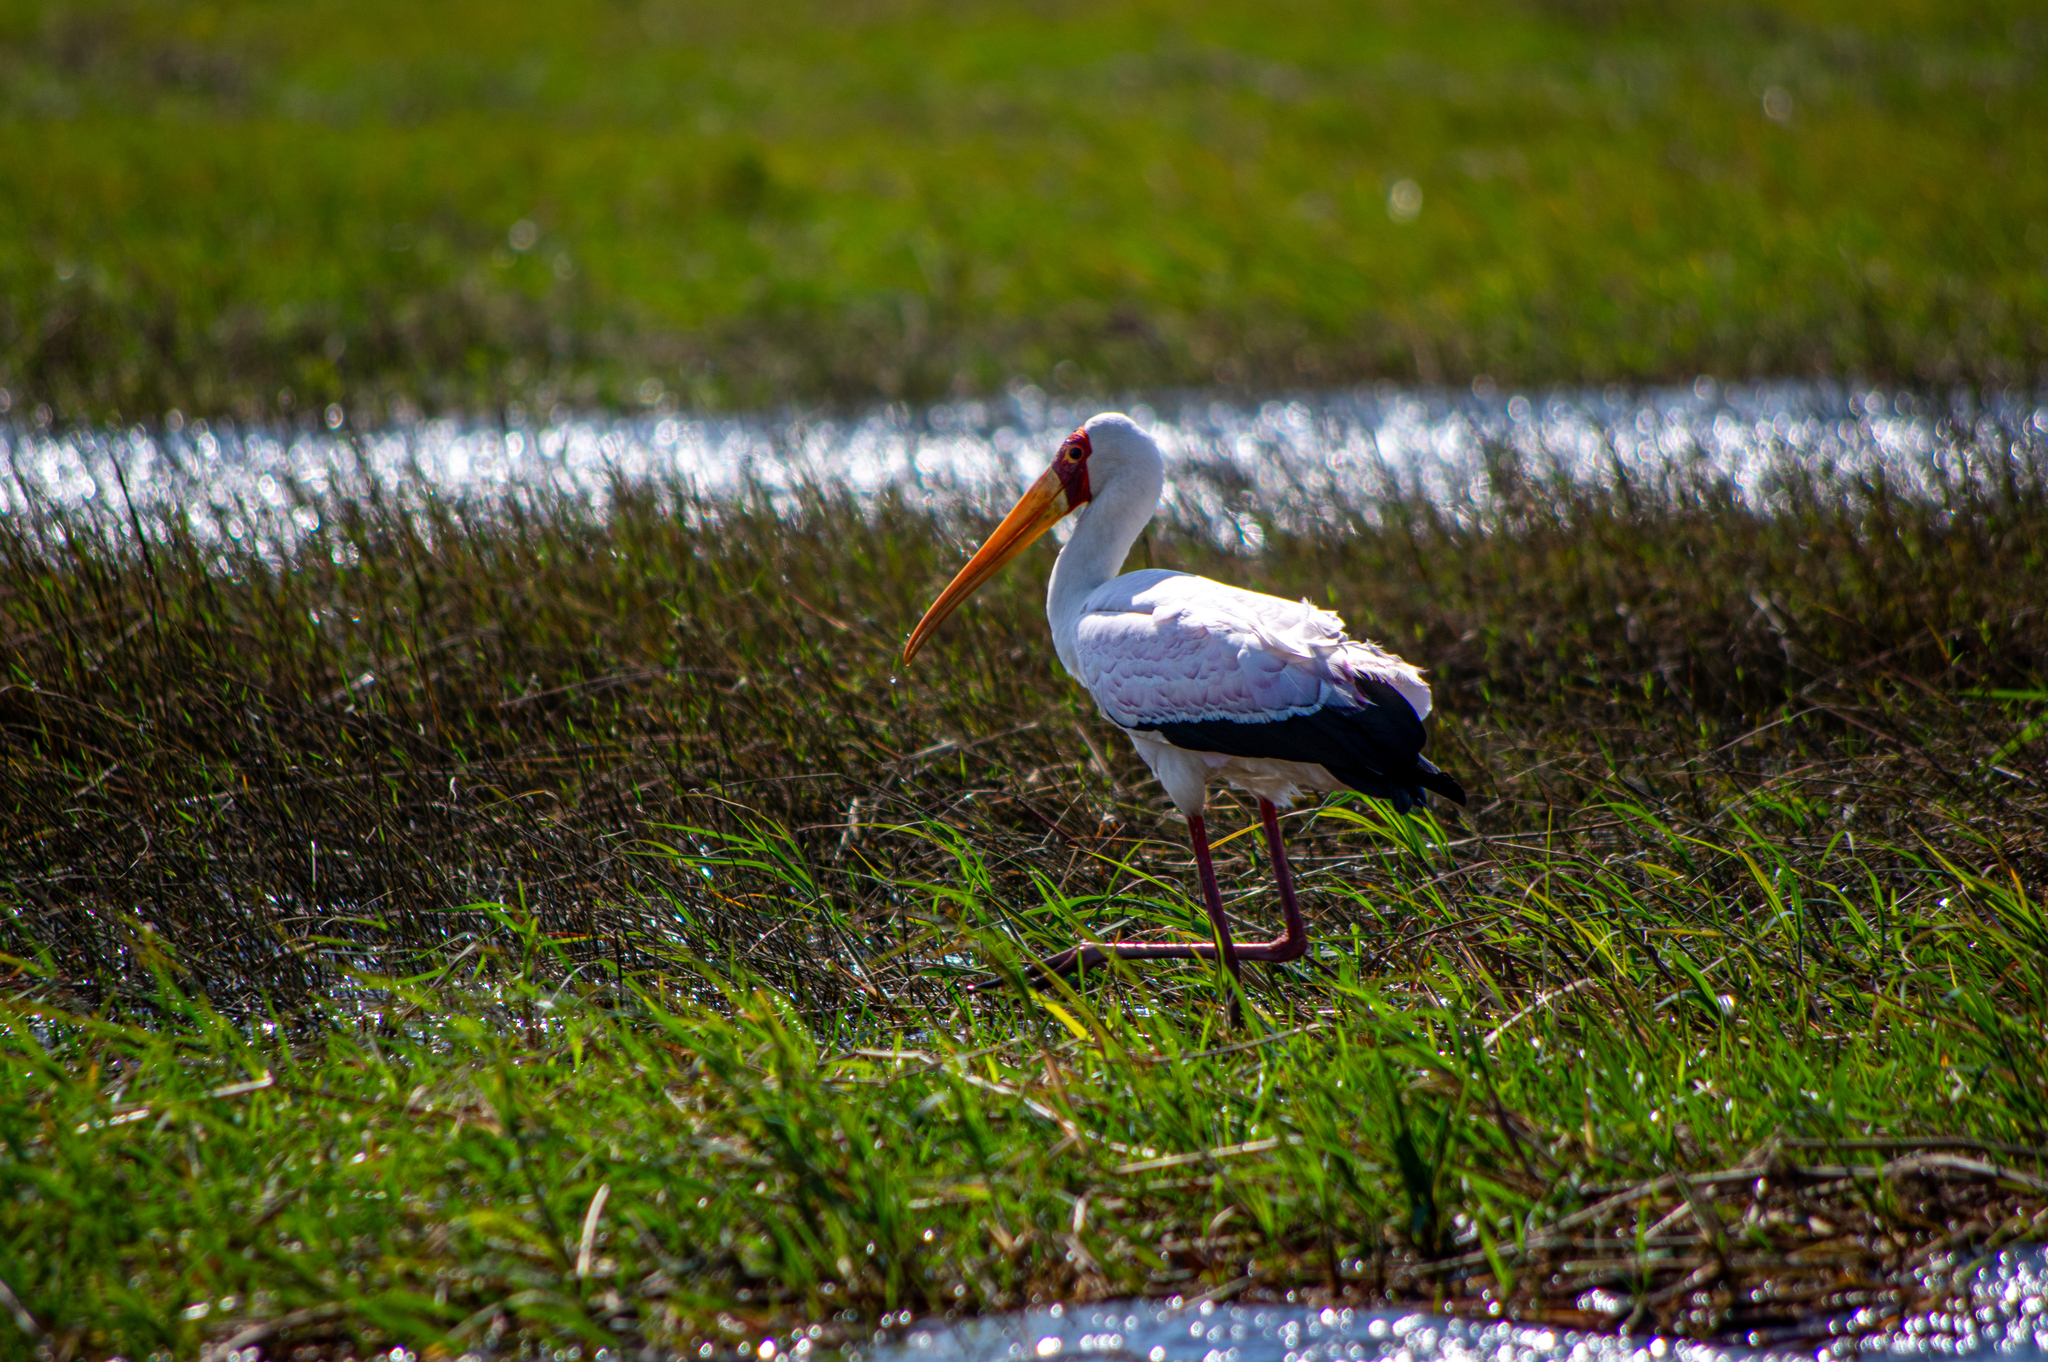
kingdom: Animalia
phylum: Chordata
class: Aves
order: Ciconiiformes
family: Ciconiidae
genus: Mycteria
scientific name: Mycteria ibis
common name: Yellow-billed stork
